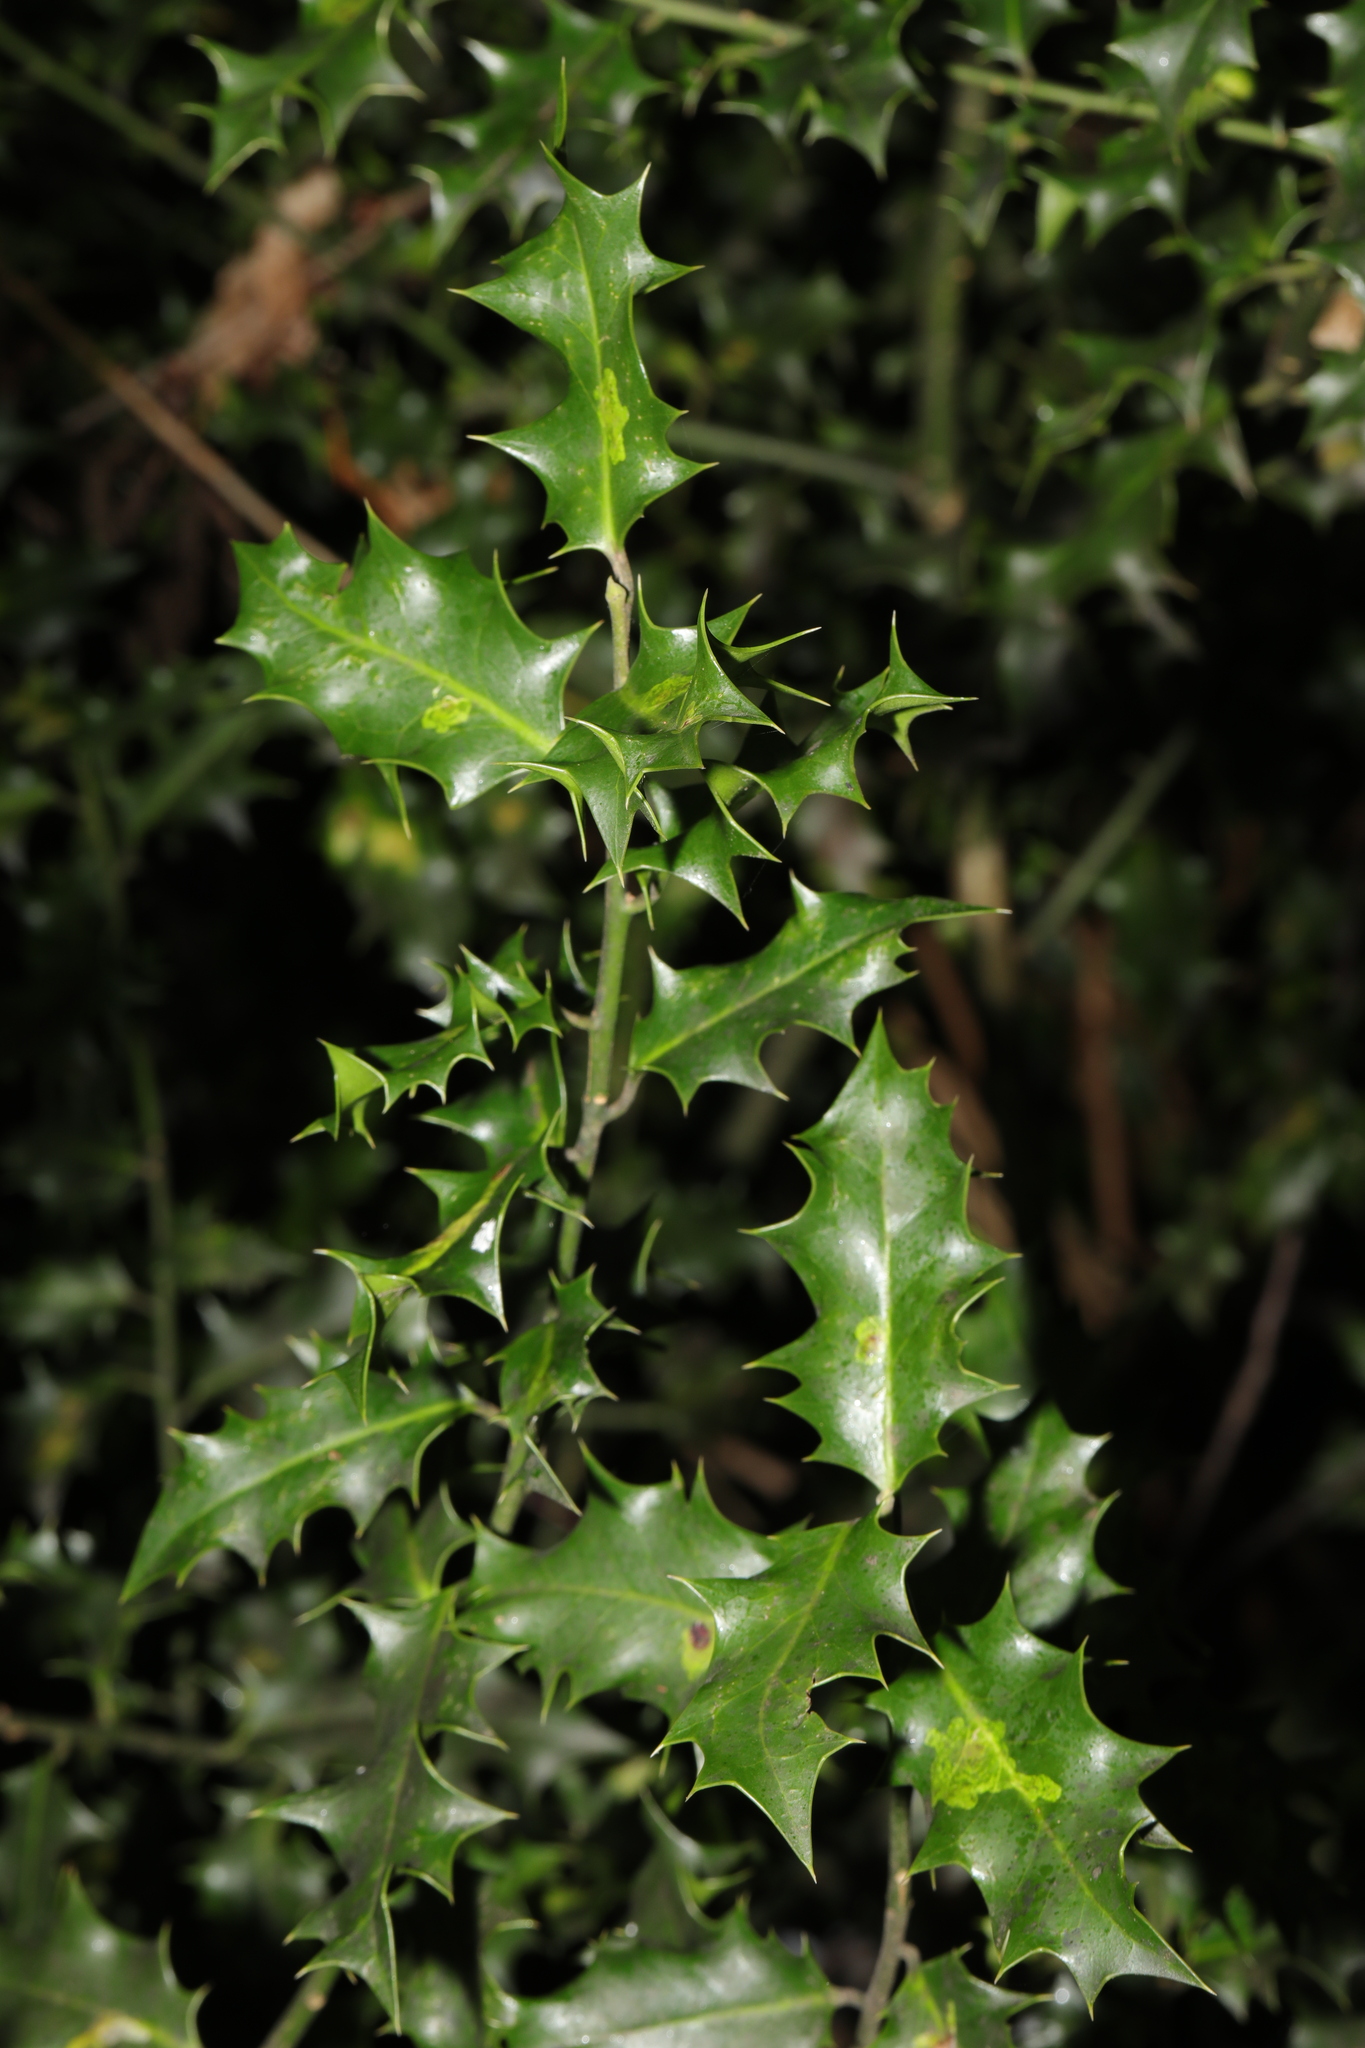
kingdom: Plantae
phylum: Tracheophyta
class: Magnoliopsida
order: Aquifoliales
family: Aquifoliaceae
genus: Ilex
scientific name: Ilex aquifolium
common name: English holly
